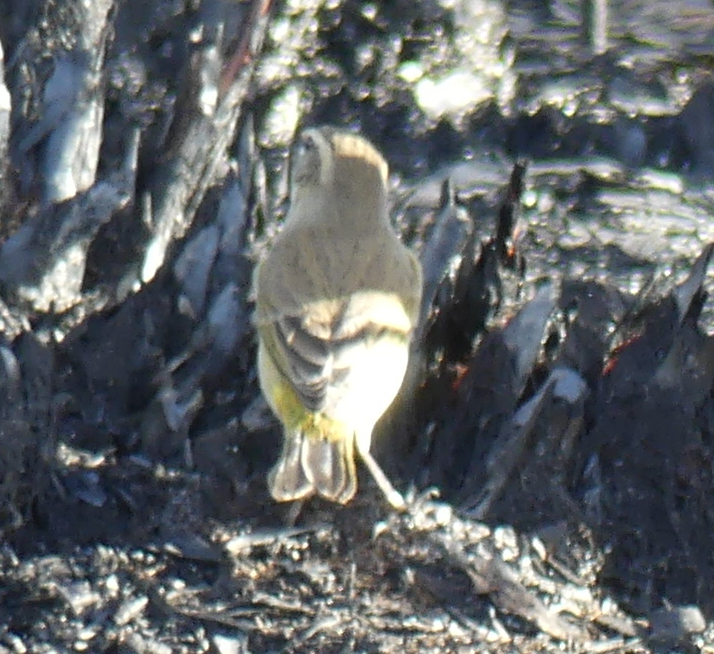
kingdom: Animalia
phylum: Chordata
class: Aves
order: Passeriformes
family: Parulidae
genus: Setophaga
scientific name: Setophaga palmarum
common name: Palm warbler
